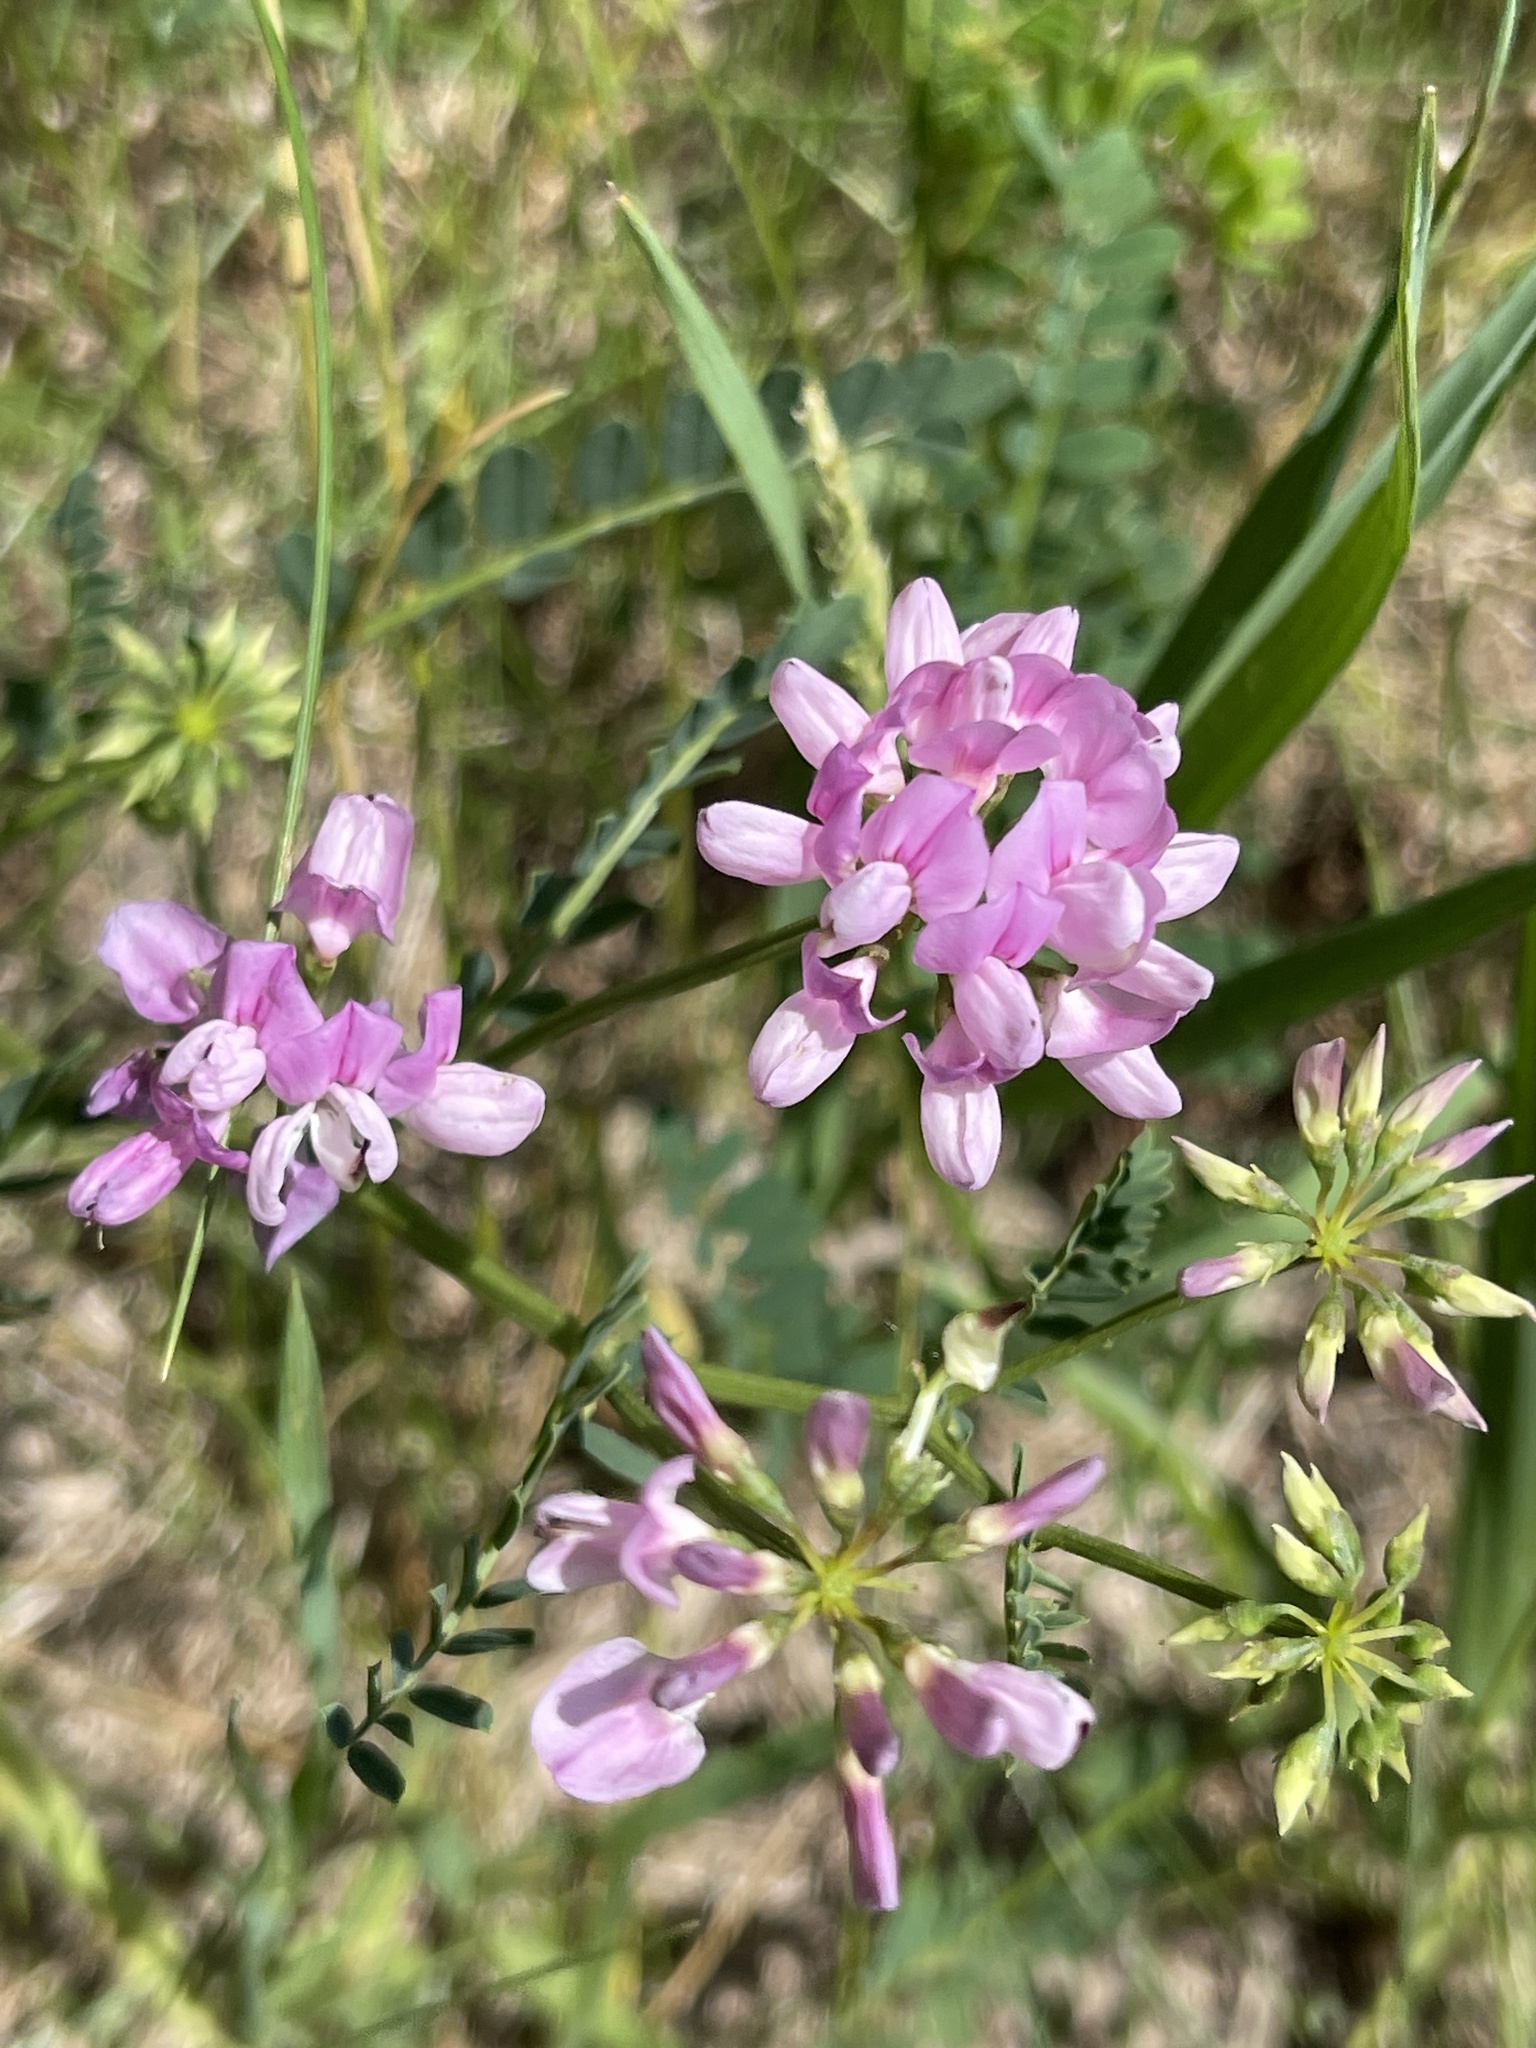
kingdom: Plantae
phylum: Tracheophyta
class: Magnoliopsida
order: Fabales
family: Fabaceae
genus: Coronilla
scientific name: Coronilla varia
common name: Crownvetch
